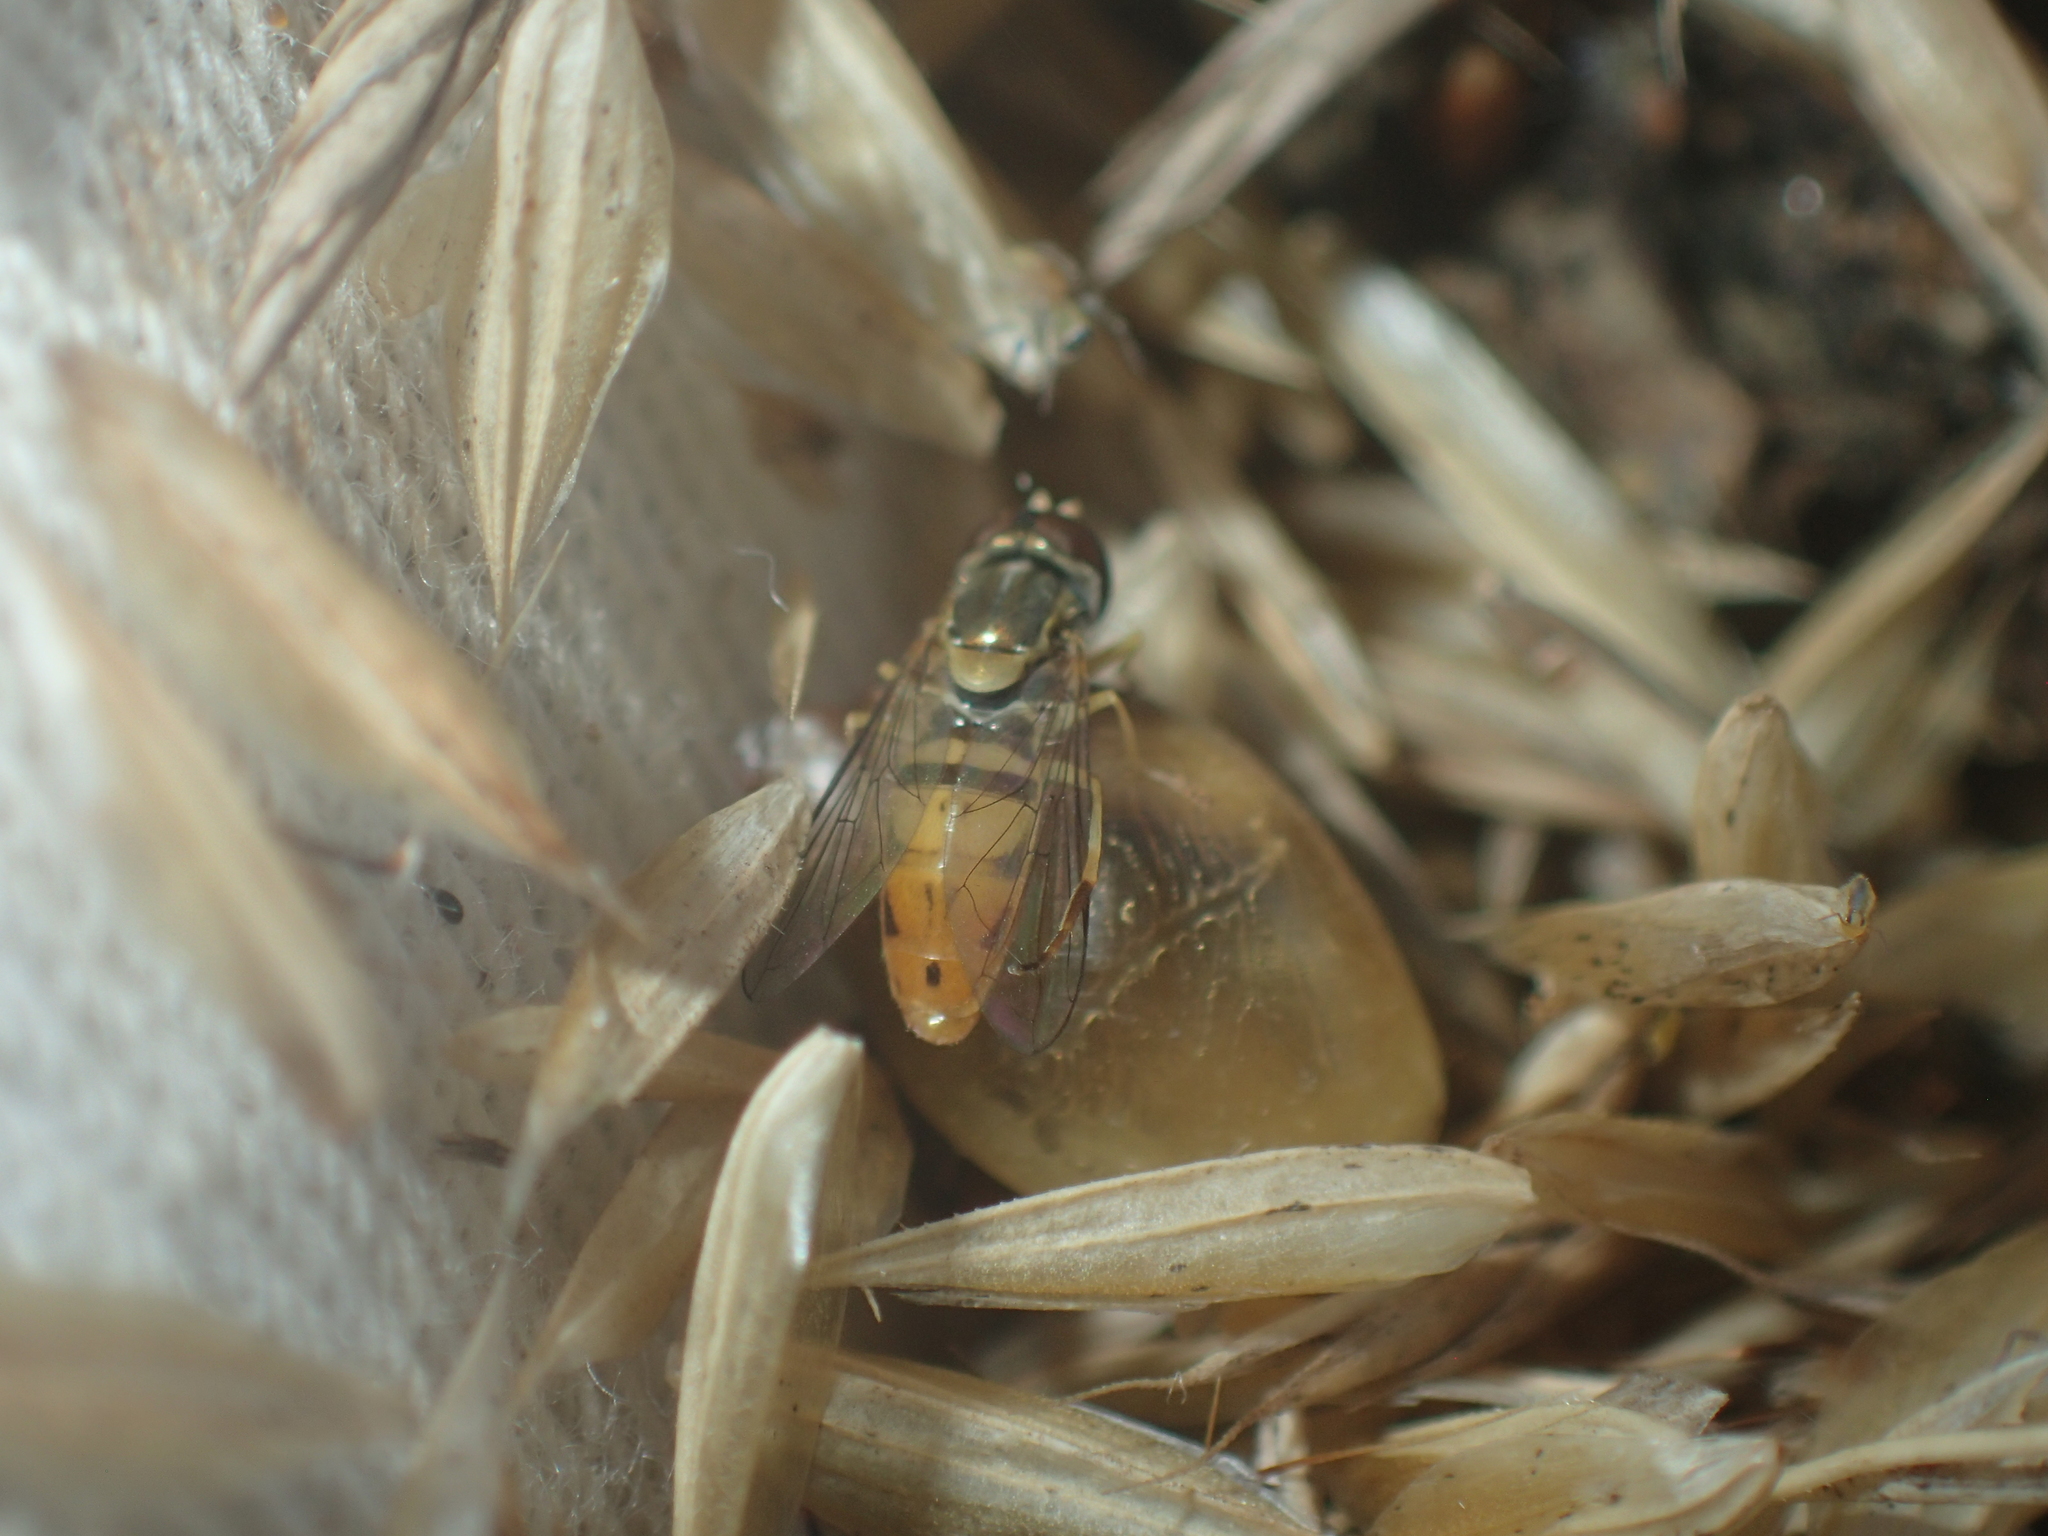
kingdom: Animalia
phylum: Arthropoda
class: Insecta
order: Diptera
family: Syrphidae
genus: Toxomerus
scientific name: Toxomerus marginatus
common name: Syrphid fly
